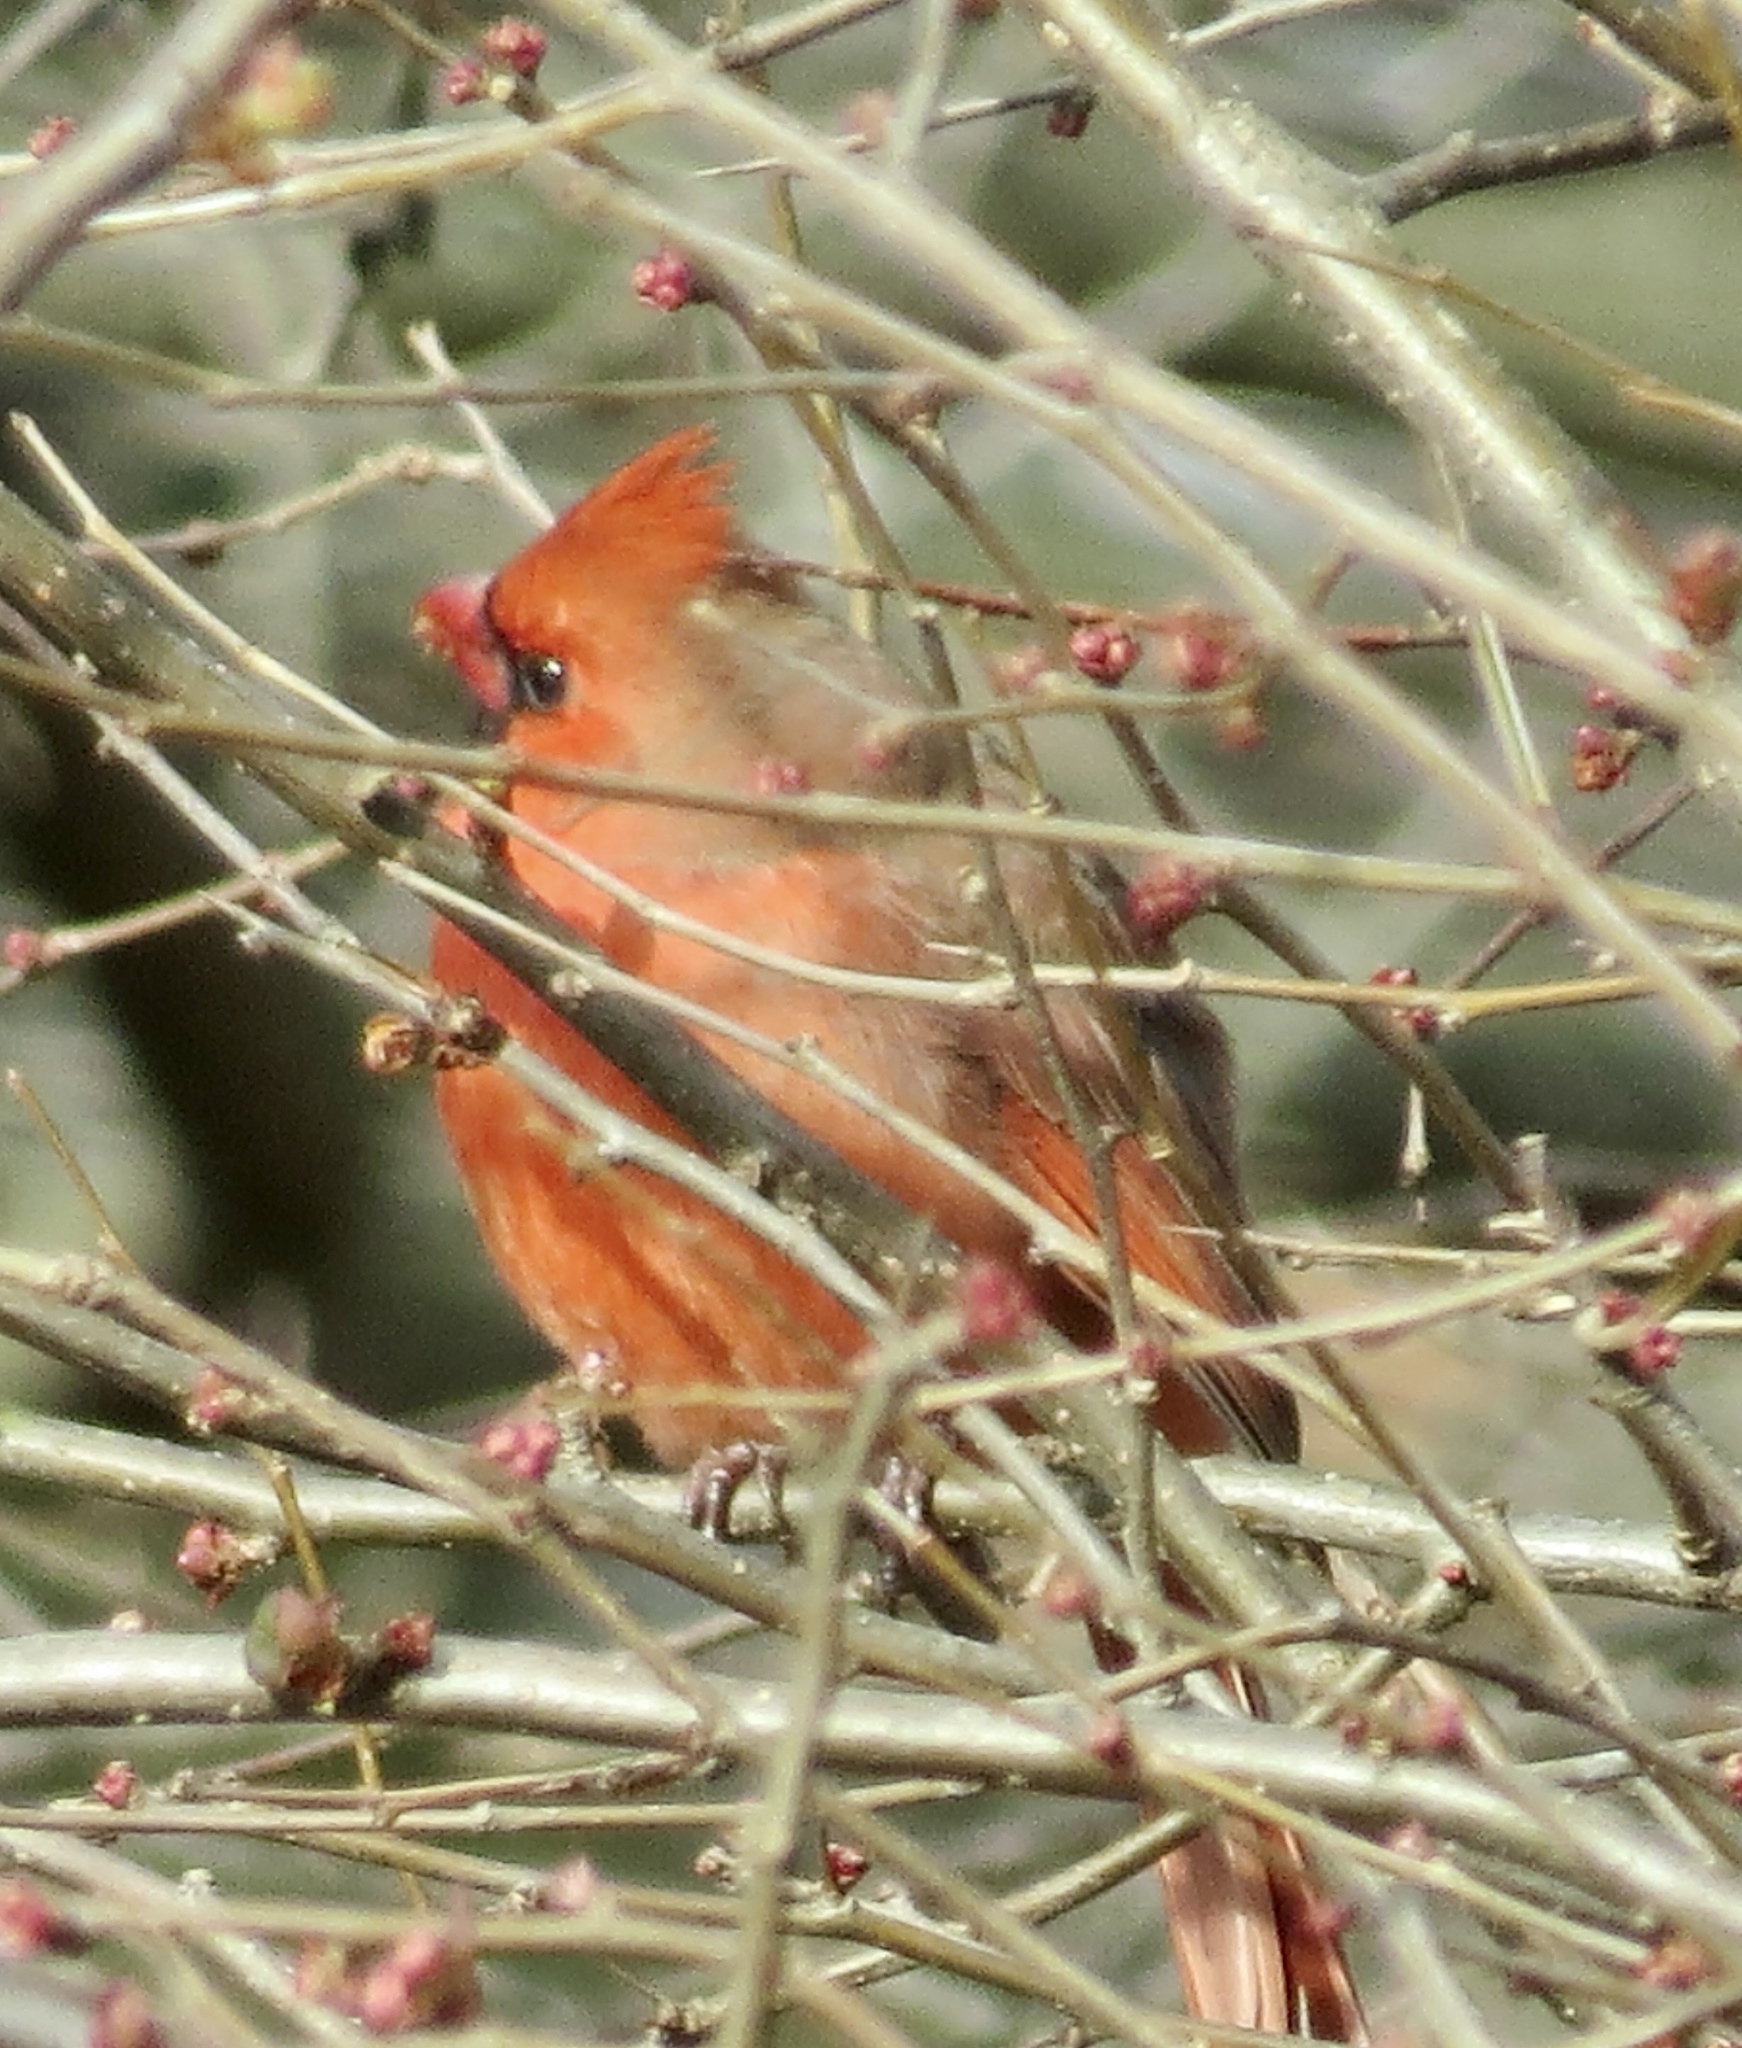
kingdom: Animalia
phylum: Chordata
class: Aves
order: Passeriformes
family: Cardinalidae
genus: Cardinalis
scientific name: Cardinalis cardinalis
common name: Northern cardinal
